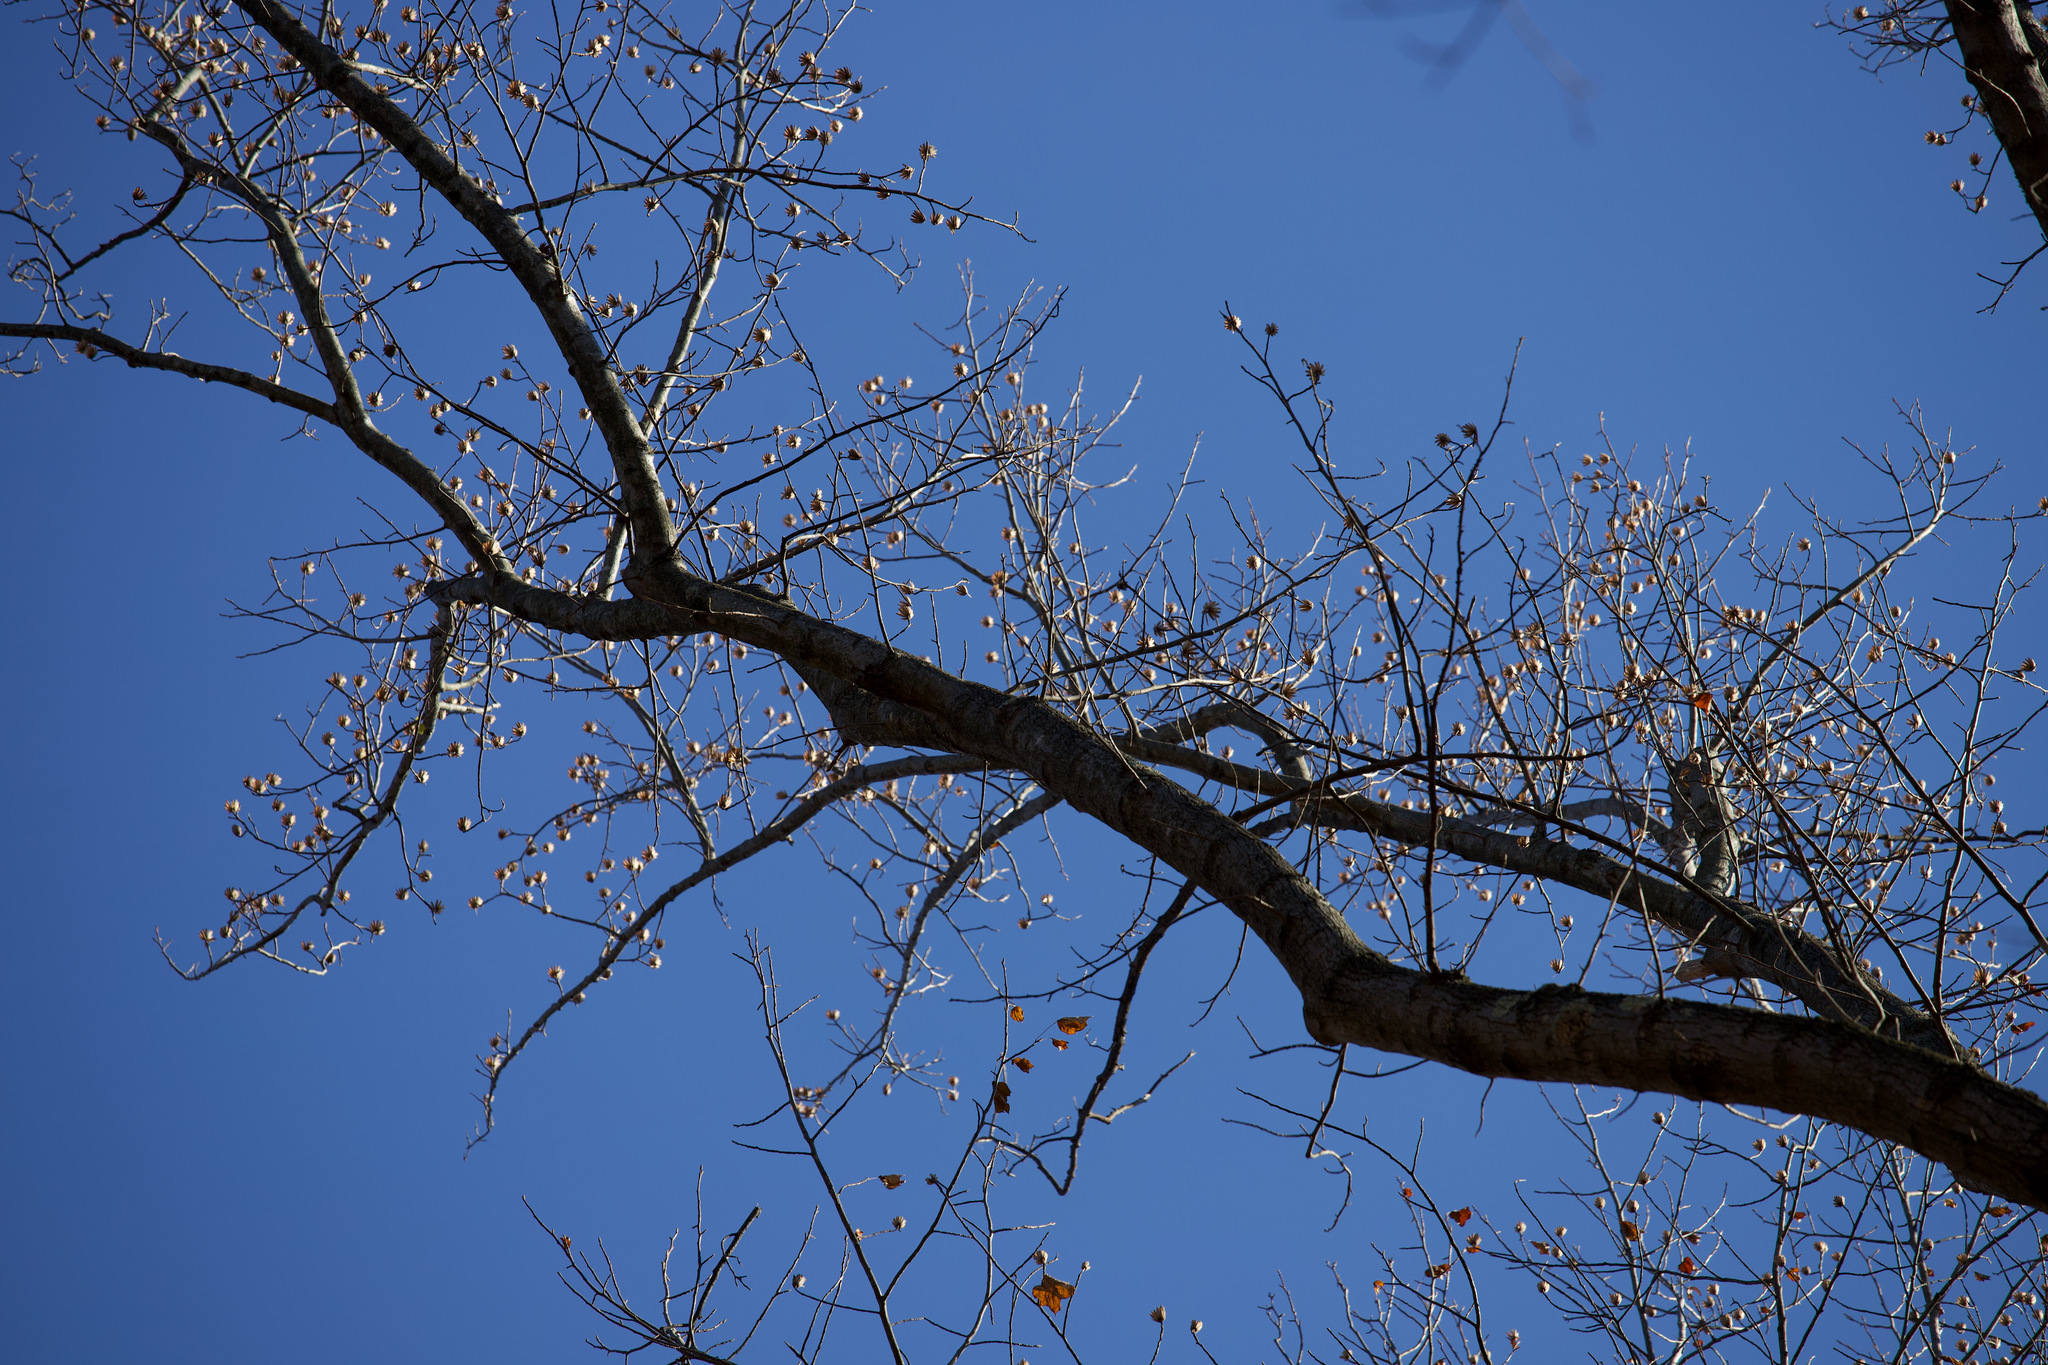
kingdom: Plantae
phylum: Tracheophyta
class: Magnoliopsida
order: Magnoliales
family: Magnoliaceae
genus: Liriodendron
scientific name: Liriodendron tulipifera
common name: Tulip tree
